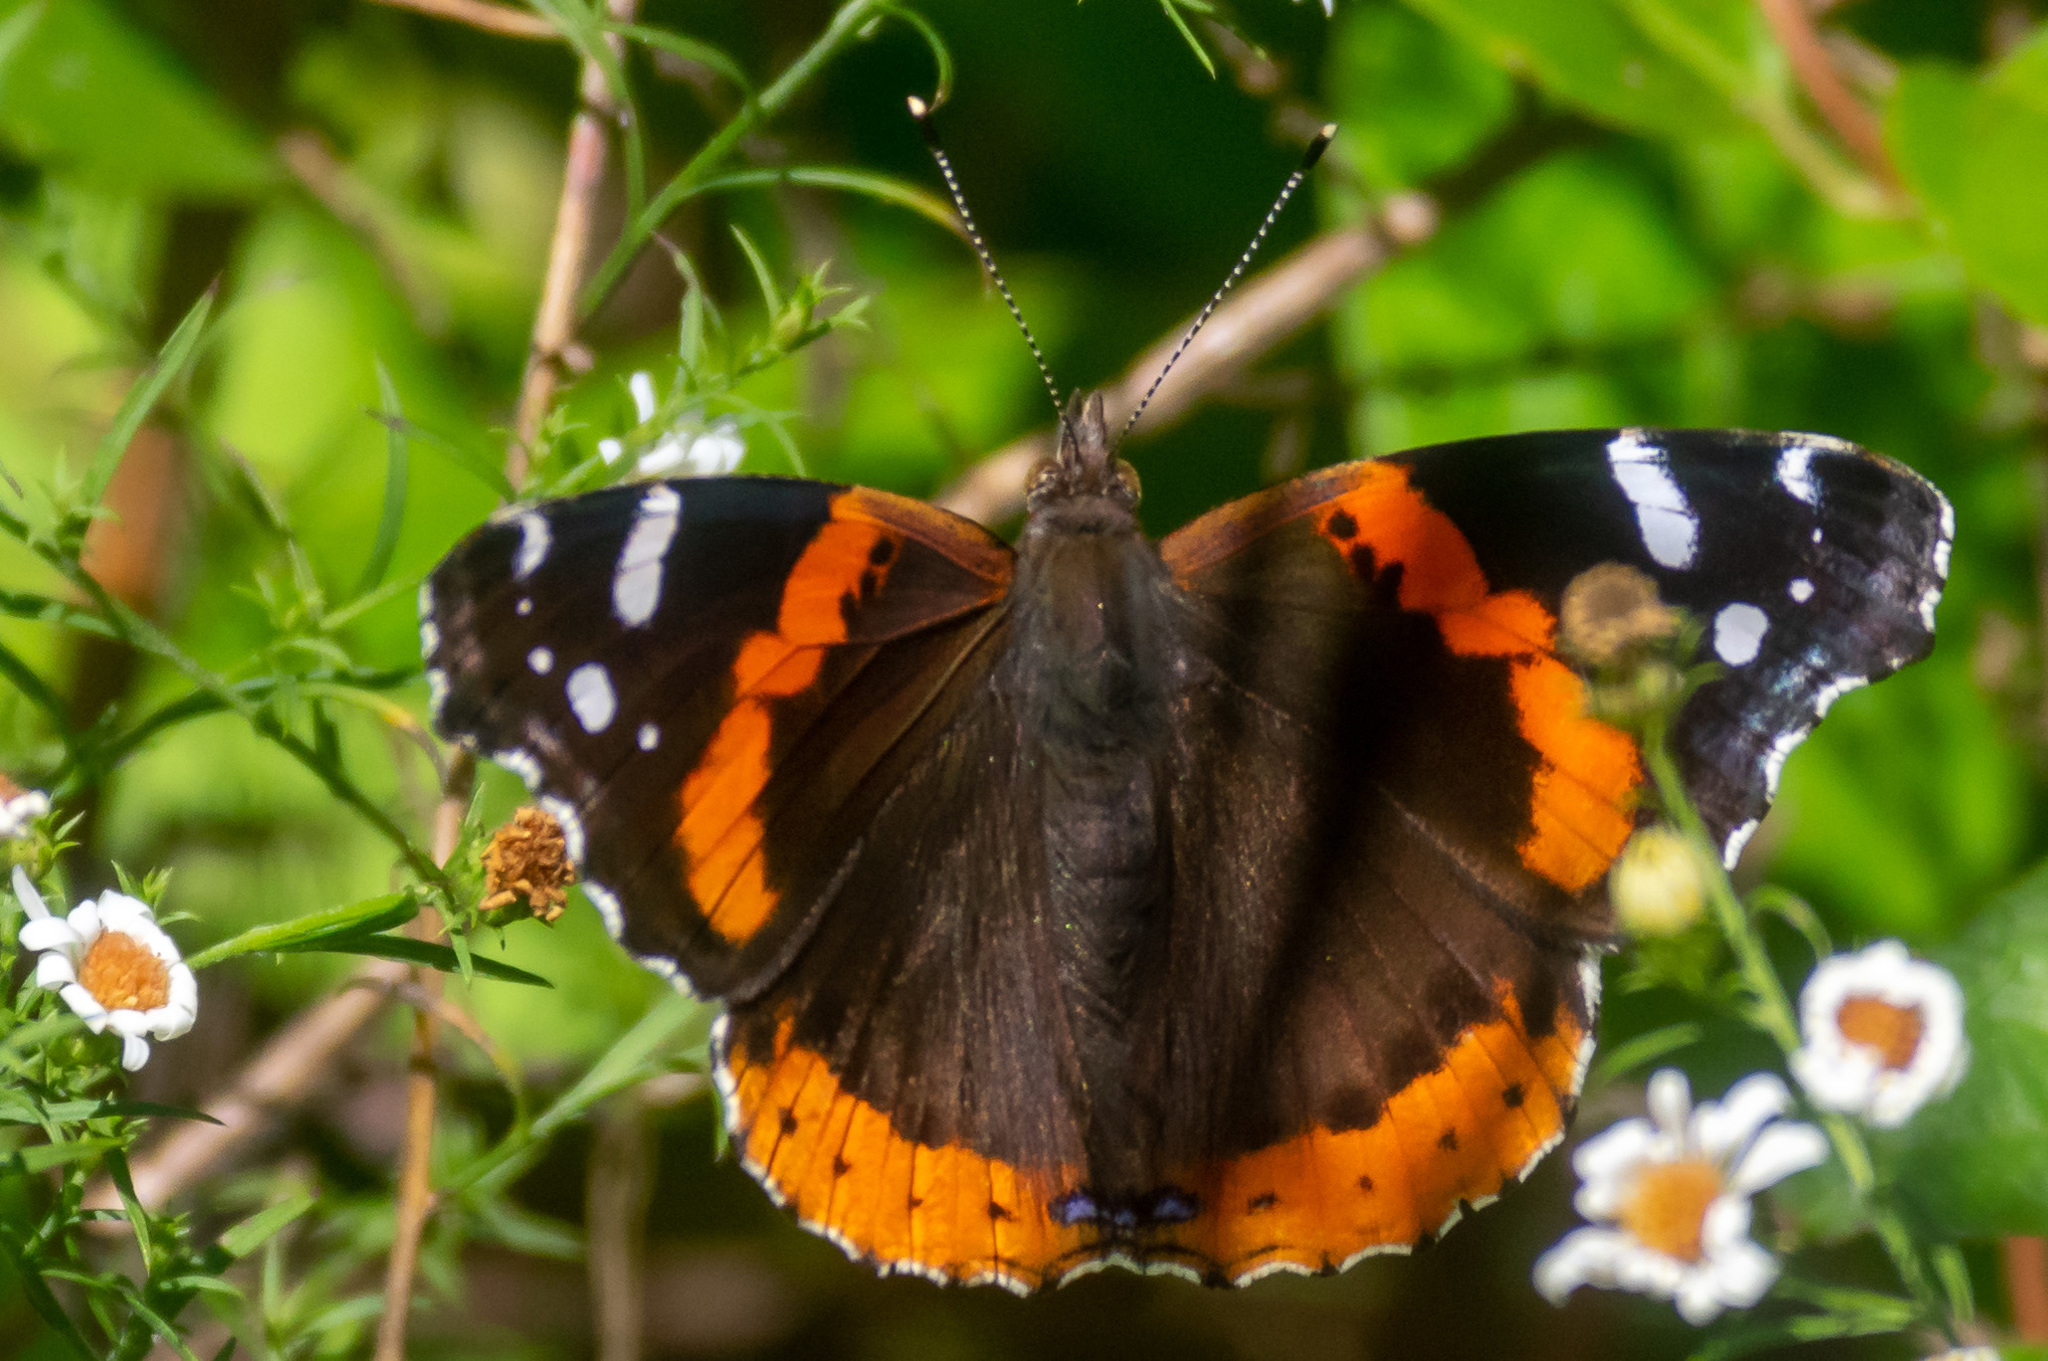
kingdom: Animalia
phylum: Arthropoda
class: Insecta
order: Lepidoptera
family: Nymphalidae
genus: Vanessa
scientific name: Vanessa atalanta
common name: Red admiral
